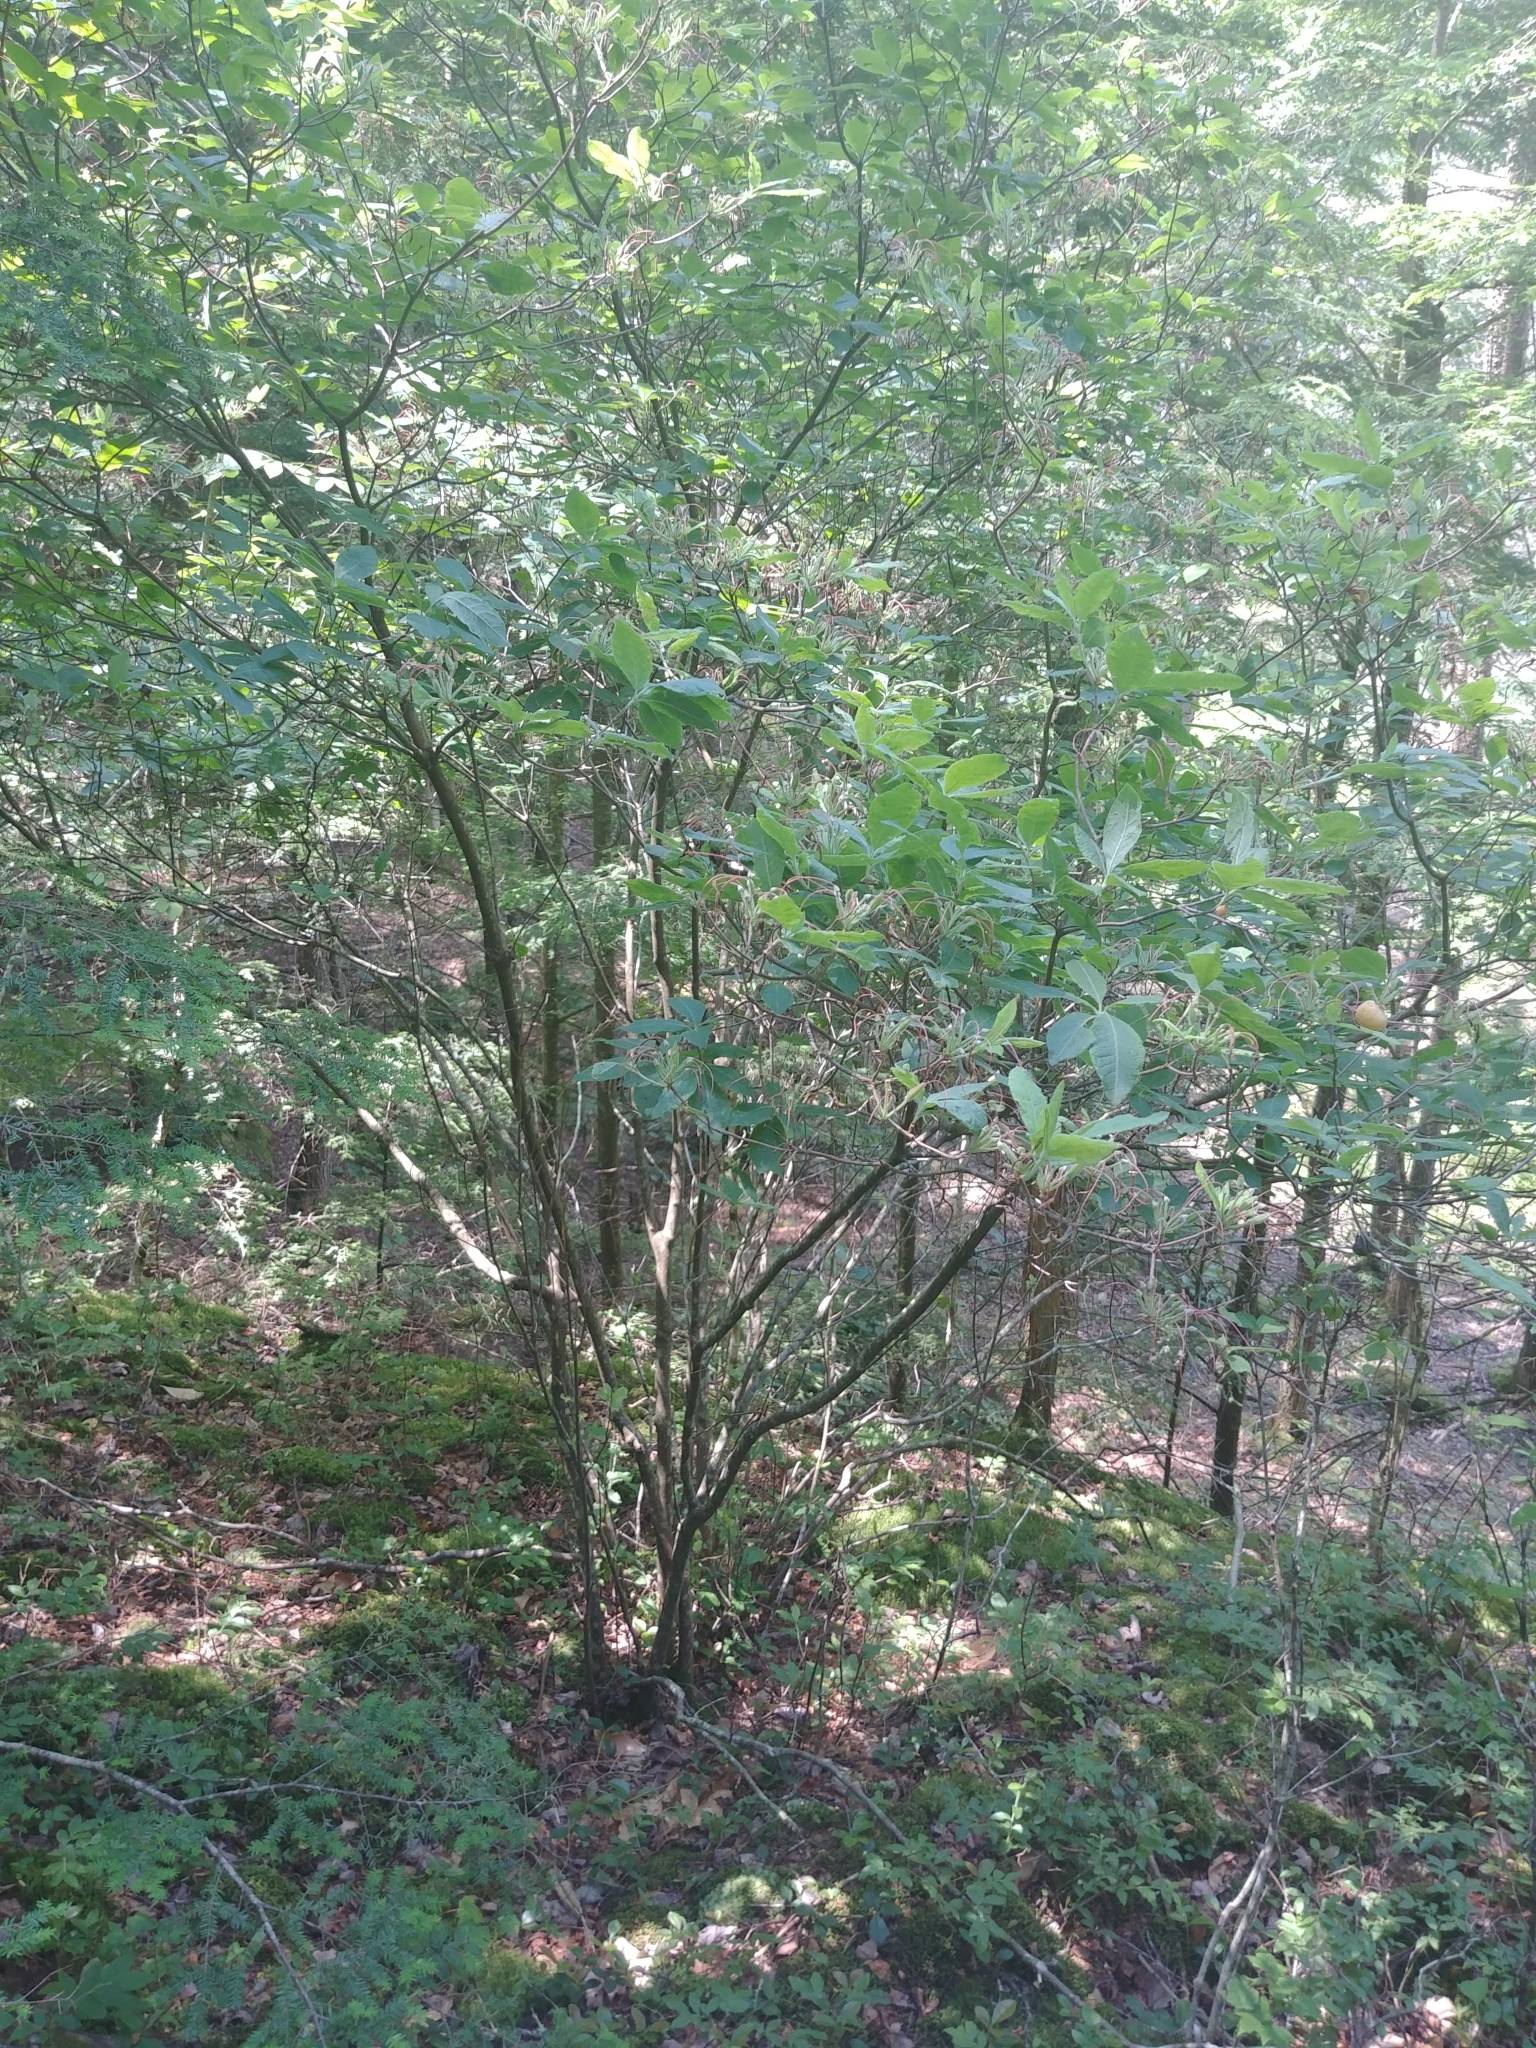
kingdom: Plantae
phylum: Tracheophyta
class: Magnoliopsida
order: Ericales
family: Ericaceae
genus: Rhododendron
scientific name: Rhododendron roseum
